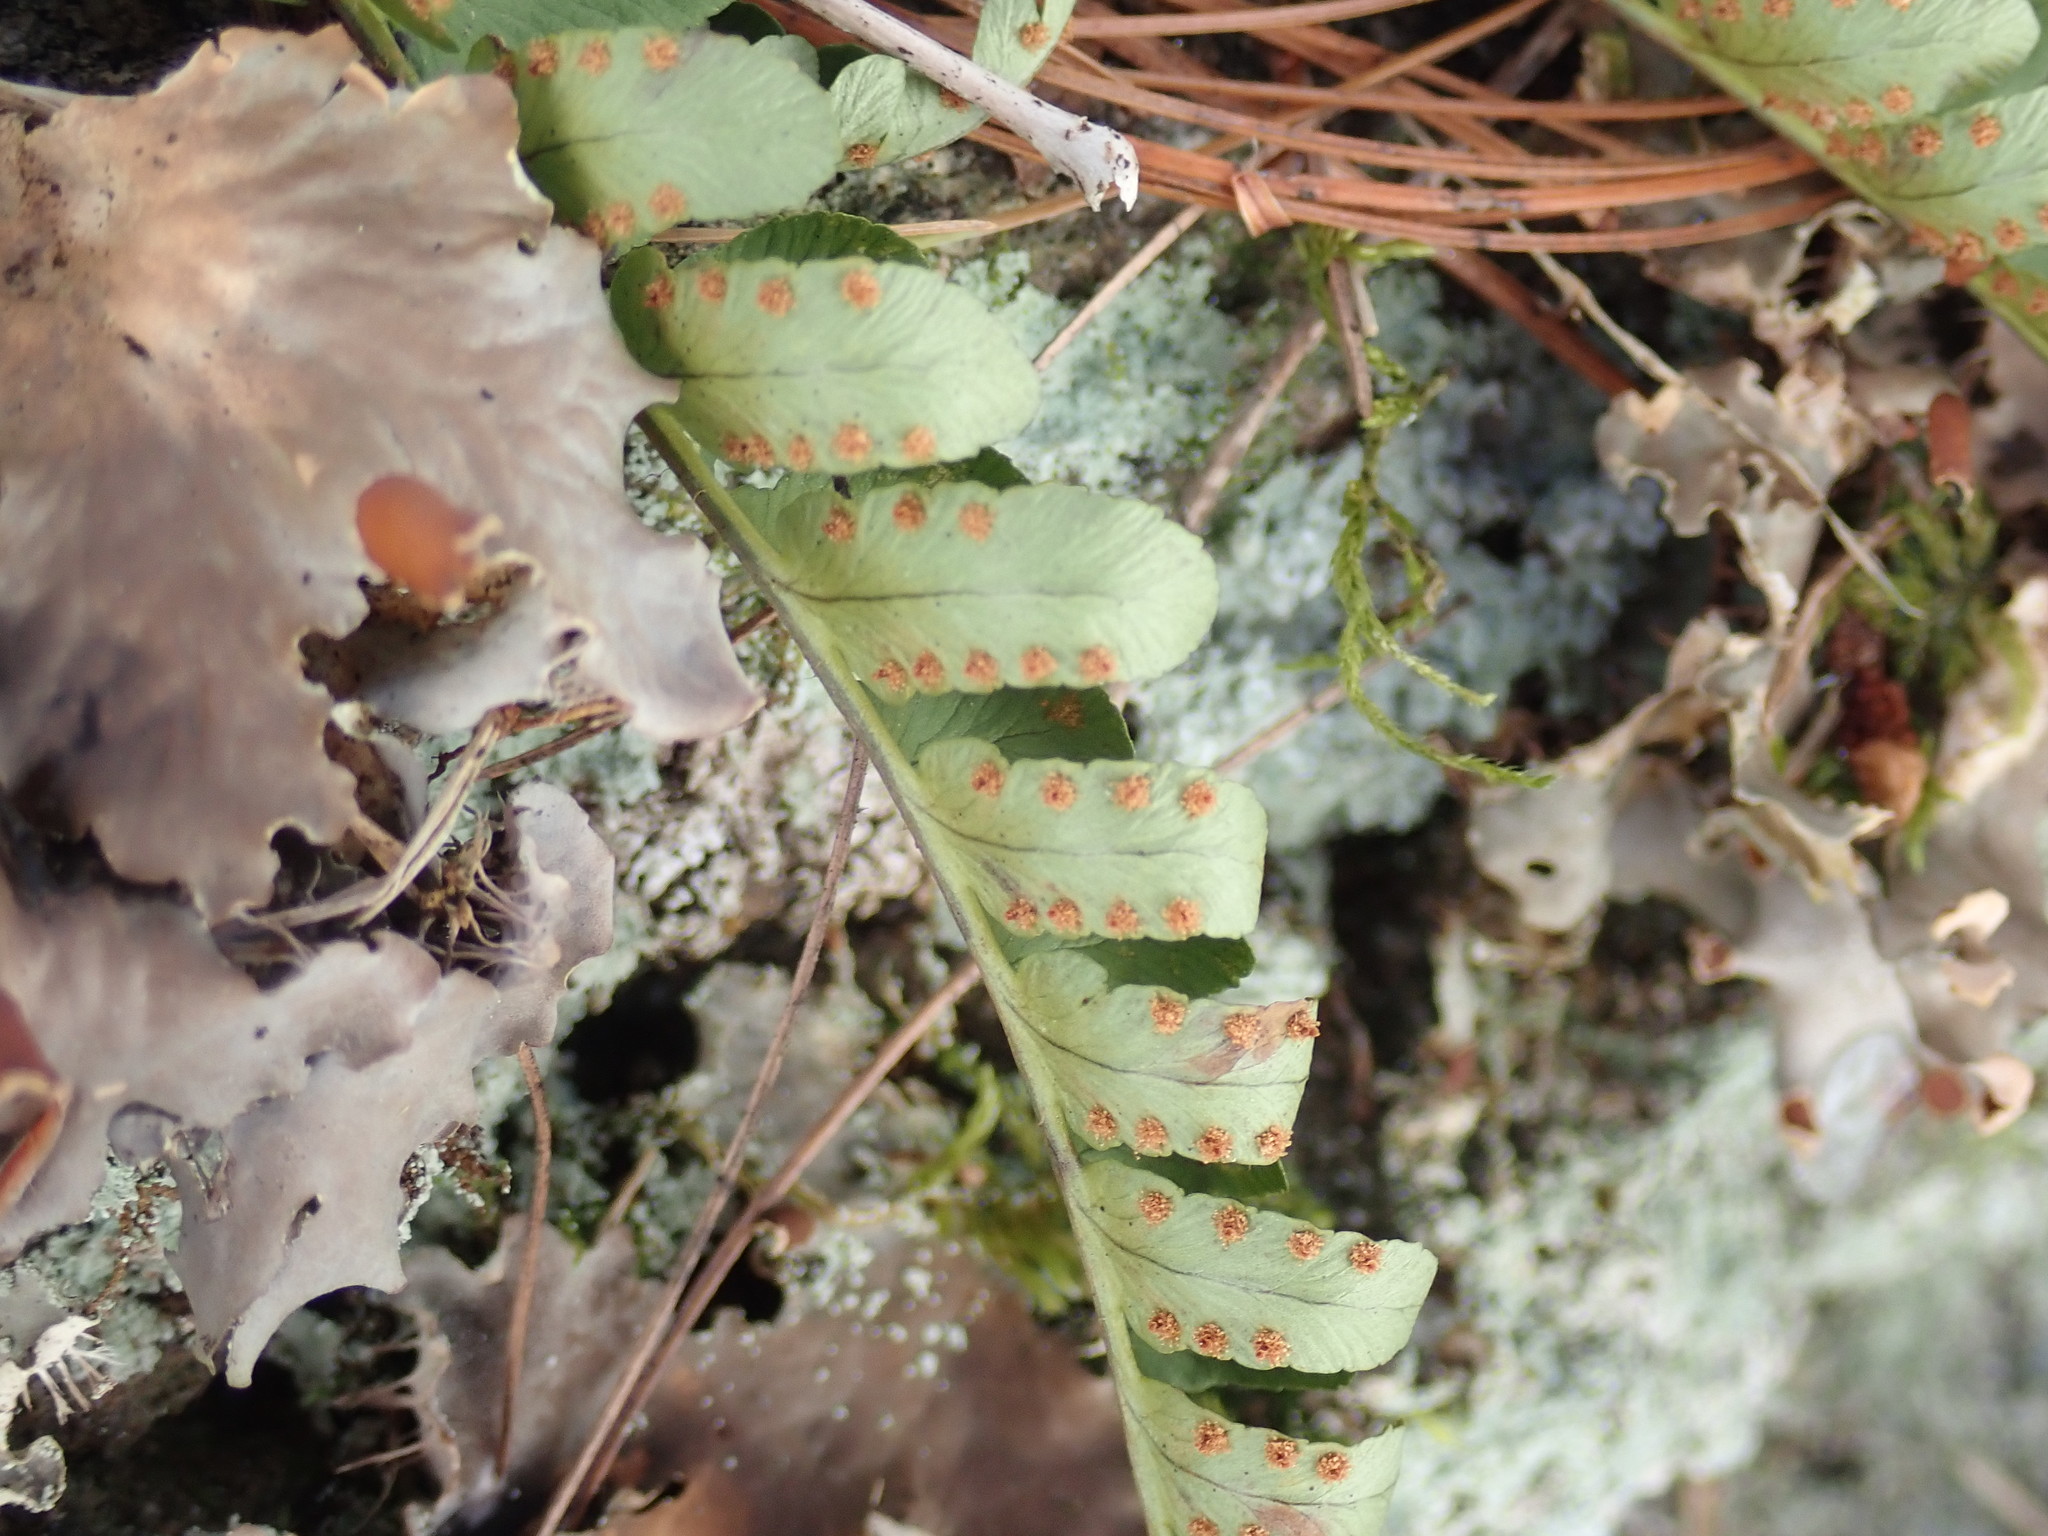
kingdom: Plantae
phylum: Tracheophyta
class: Polypodiopsida
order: Polypodiales
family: Dryopteridaceae
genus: Dryopteris
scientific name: Dryopteris marginalis
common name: Marginal wood fern
